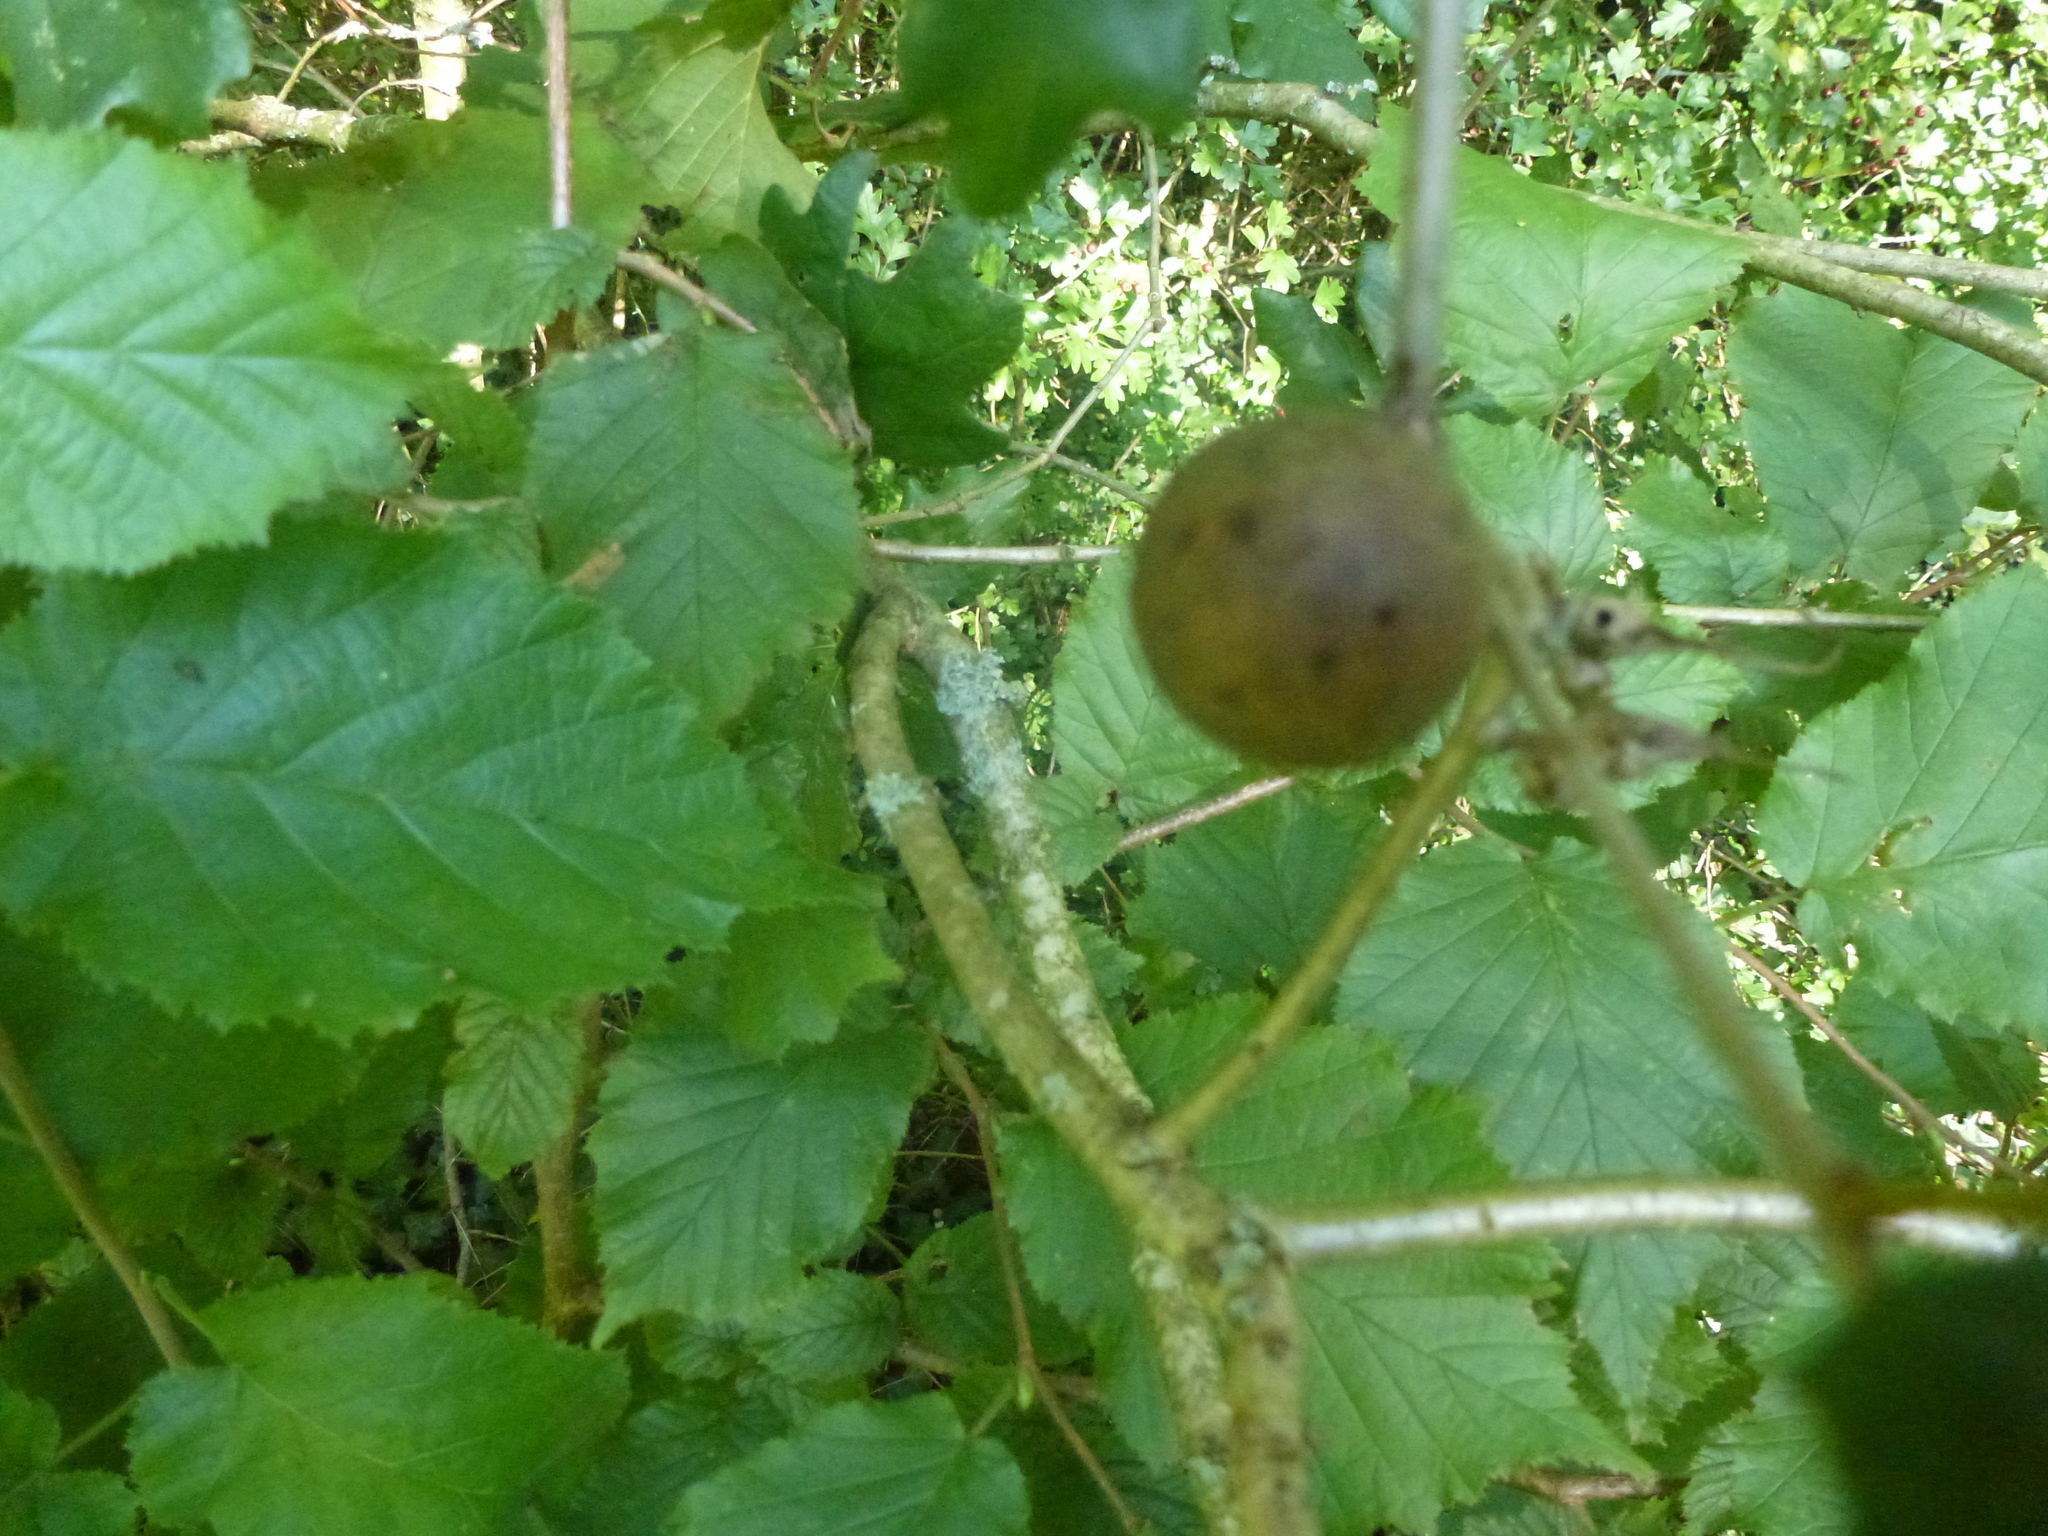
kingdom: Animalia
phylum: Arthropoda
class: Insecta
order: Hymenoptera
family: Cynipidae
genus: Andricus
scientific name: Andricus kollari
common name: Marble gall
